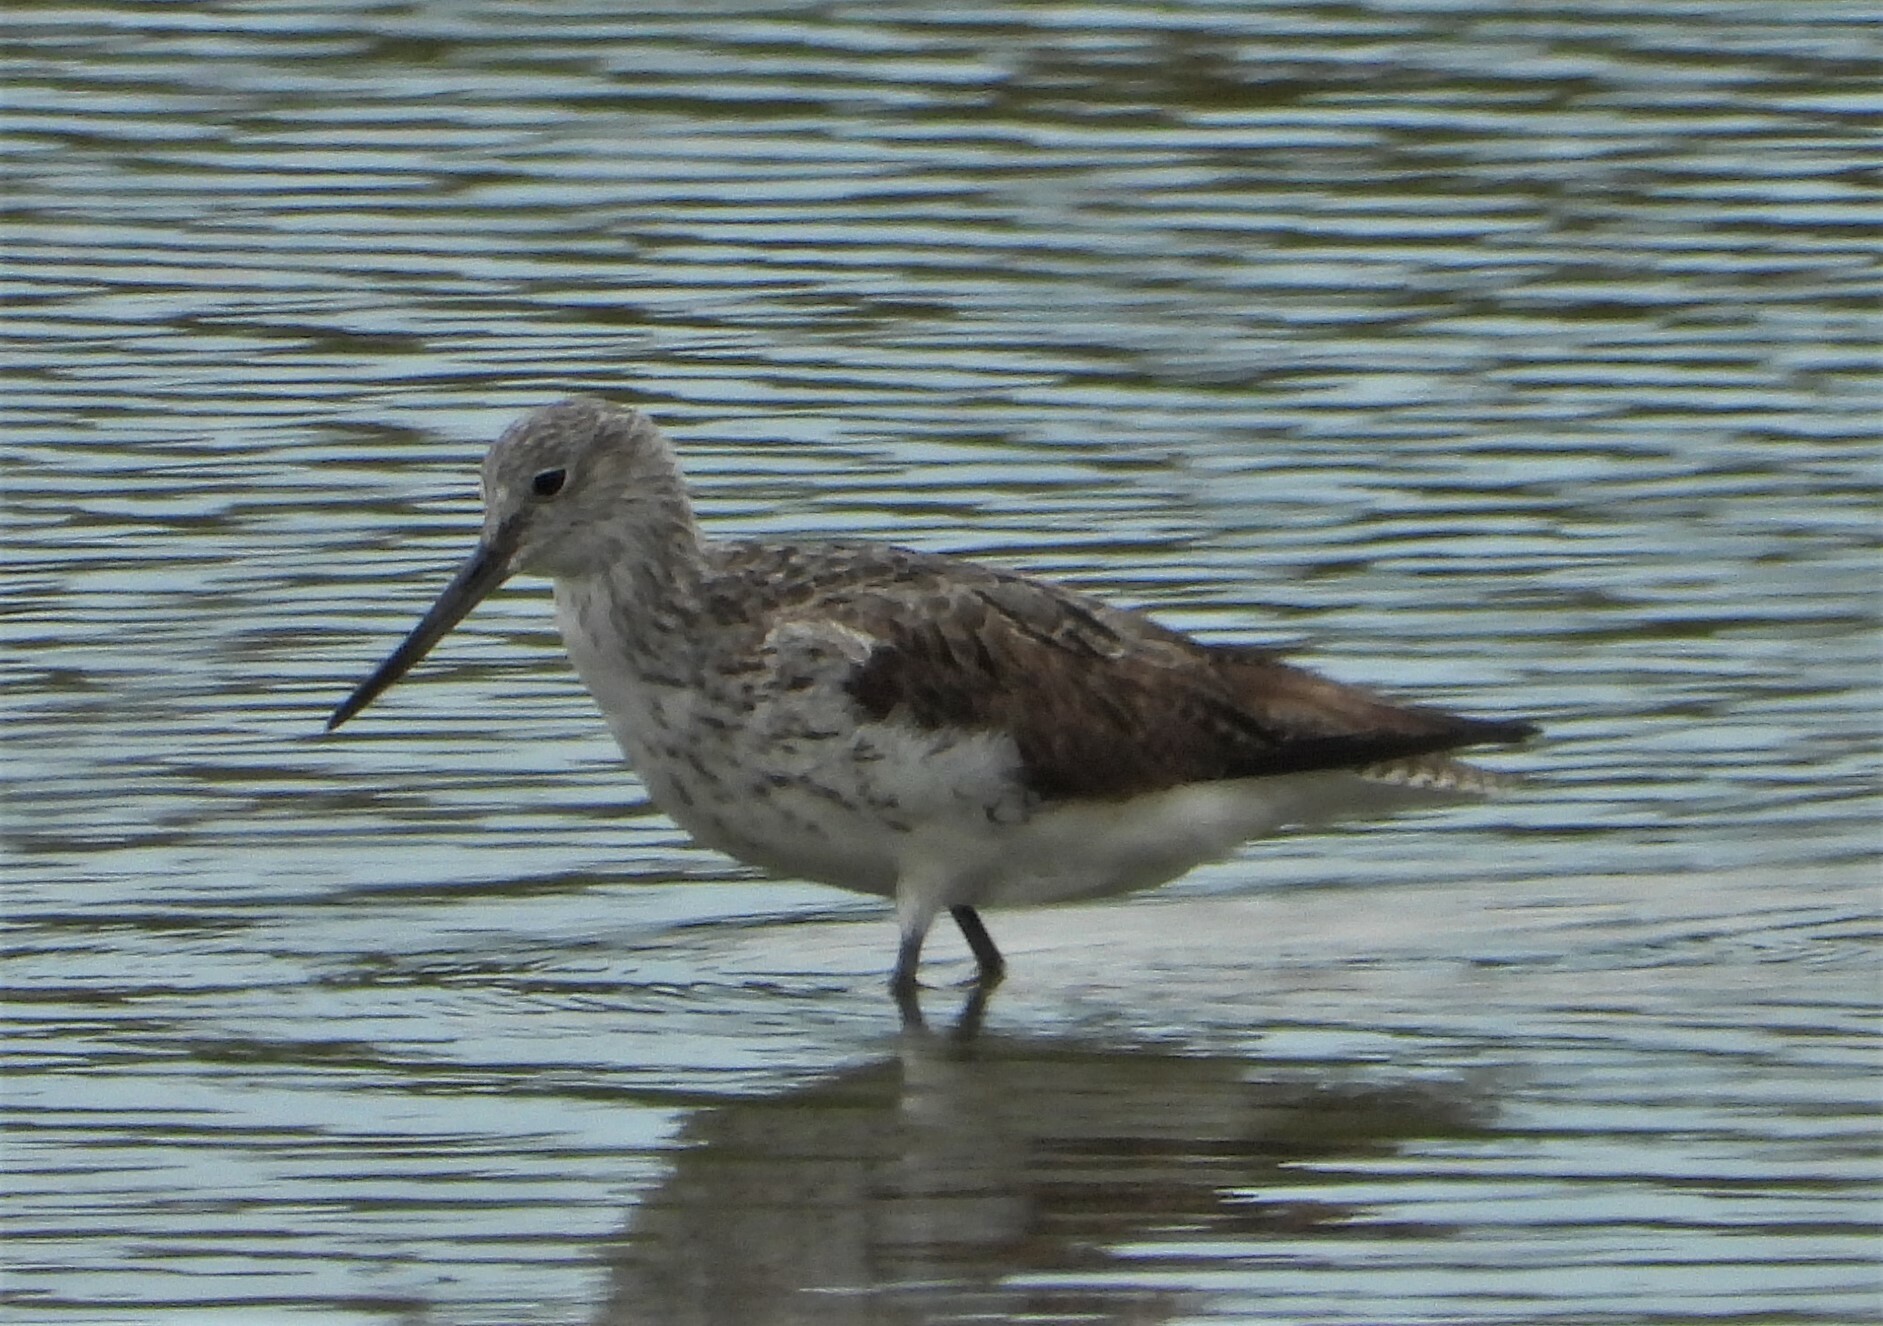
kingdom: Animalia
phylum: Chordata
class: Aves
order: Charadriiformes
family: Scolopacidae
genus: Tringa
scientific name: Tringa nebularia
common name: Common greenshank
